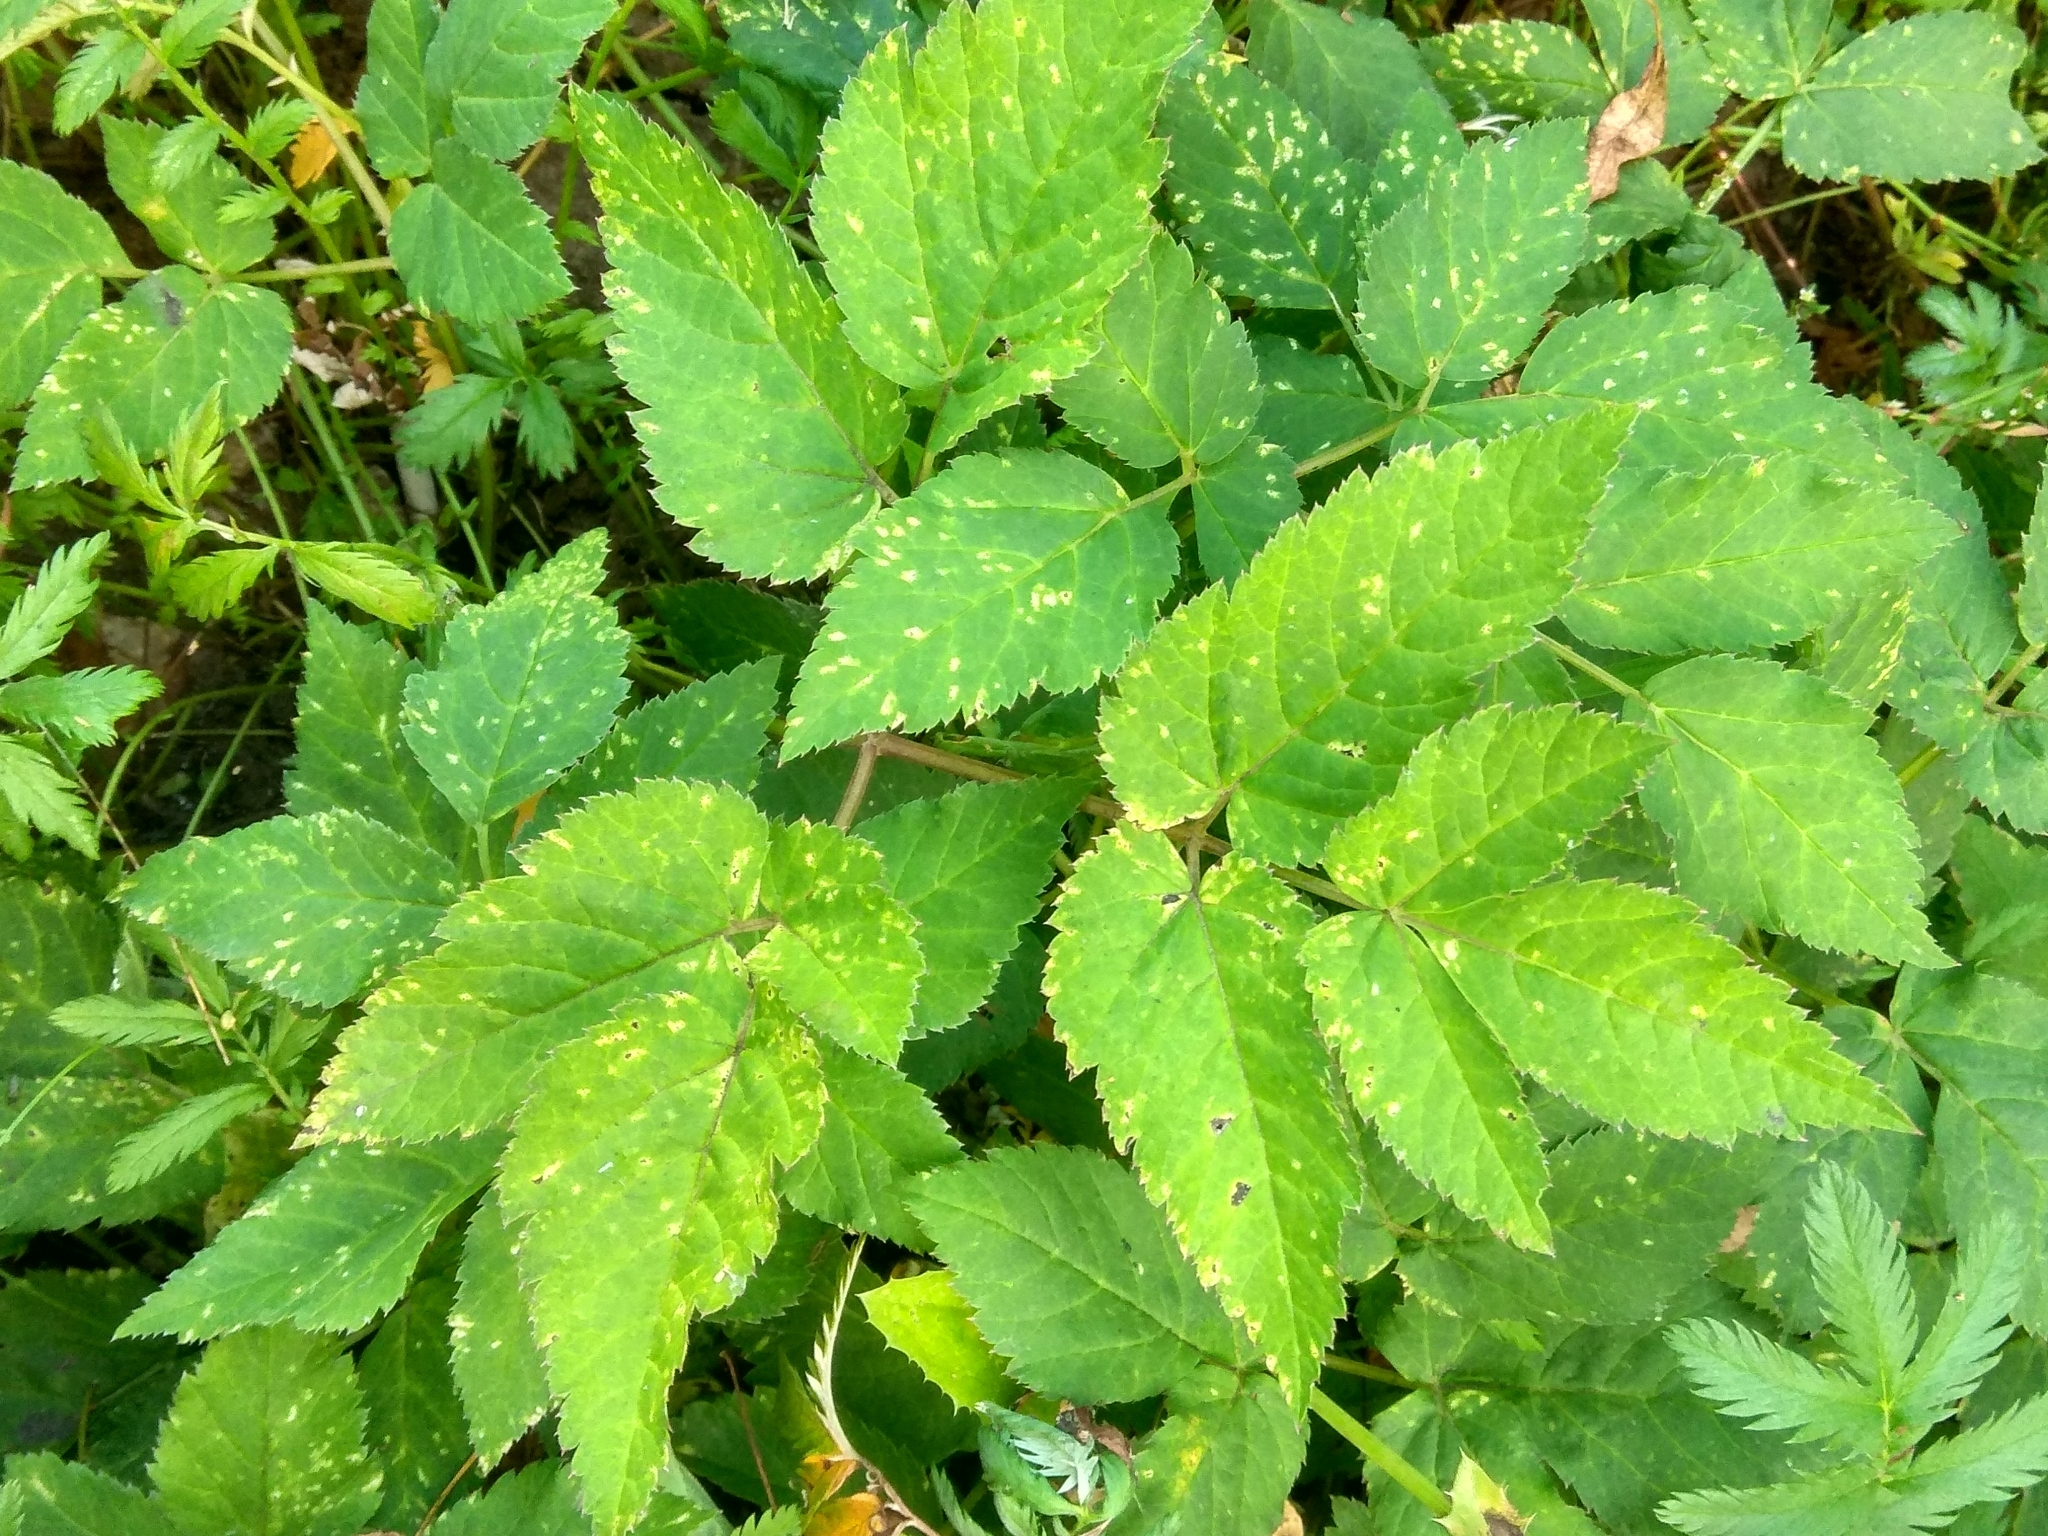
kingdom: Plantae
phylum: Tracheophyta
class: Magnoliopsida
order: Apiales
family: Apiaceae
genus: Aegopodium
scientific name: Aegopodium podagraria
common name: Ground-elder
